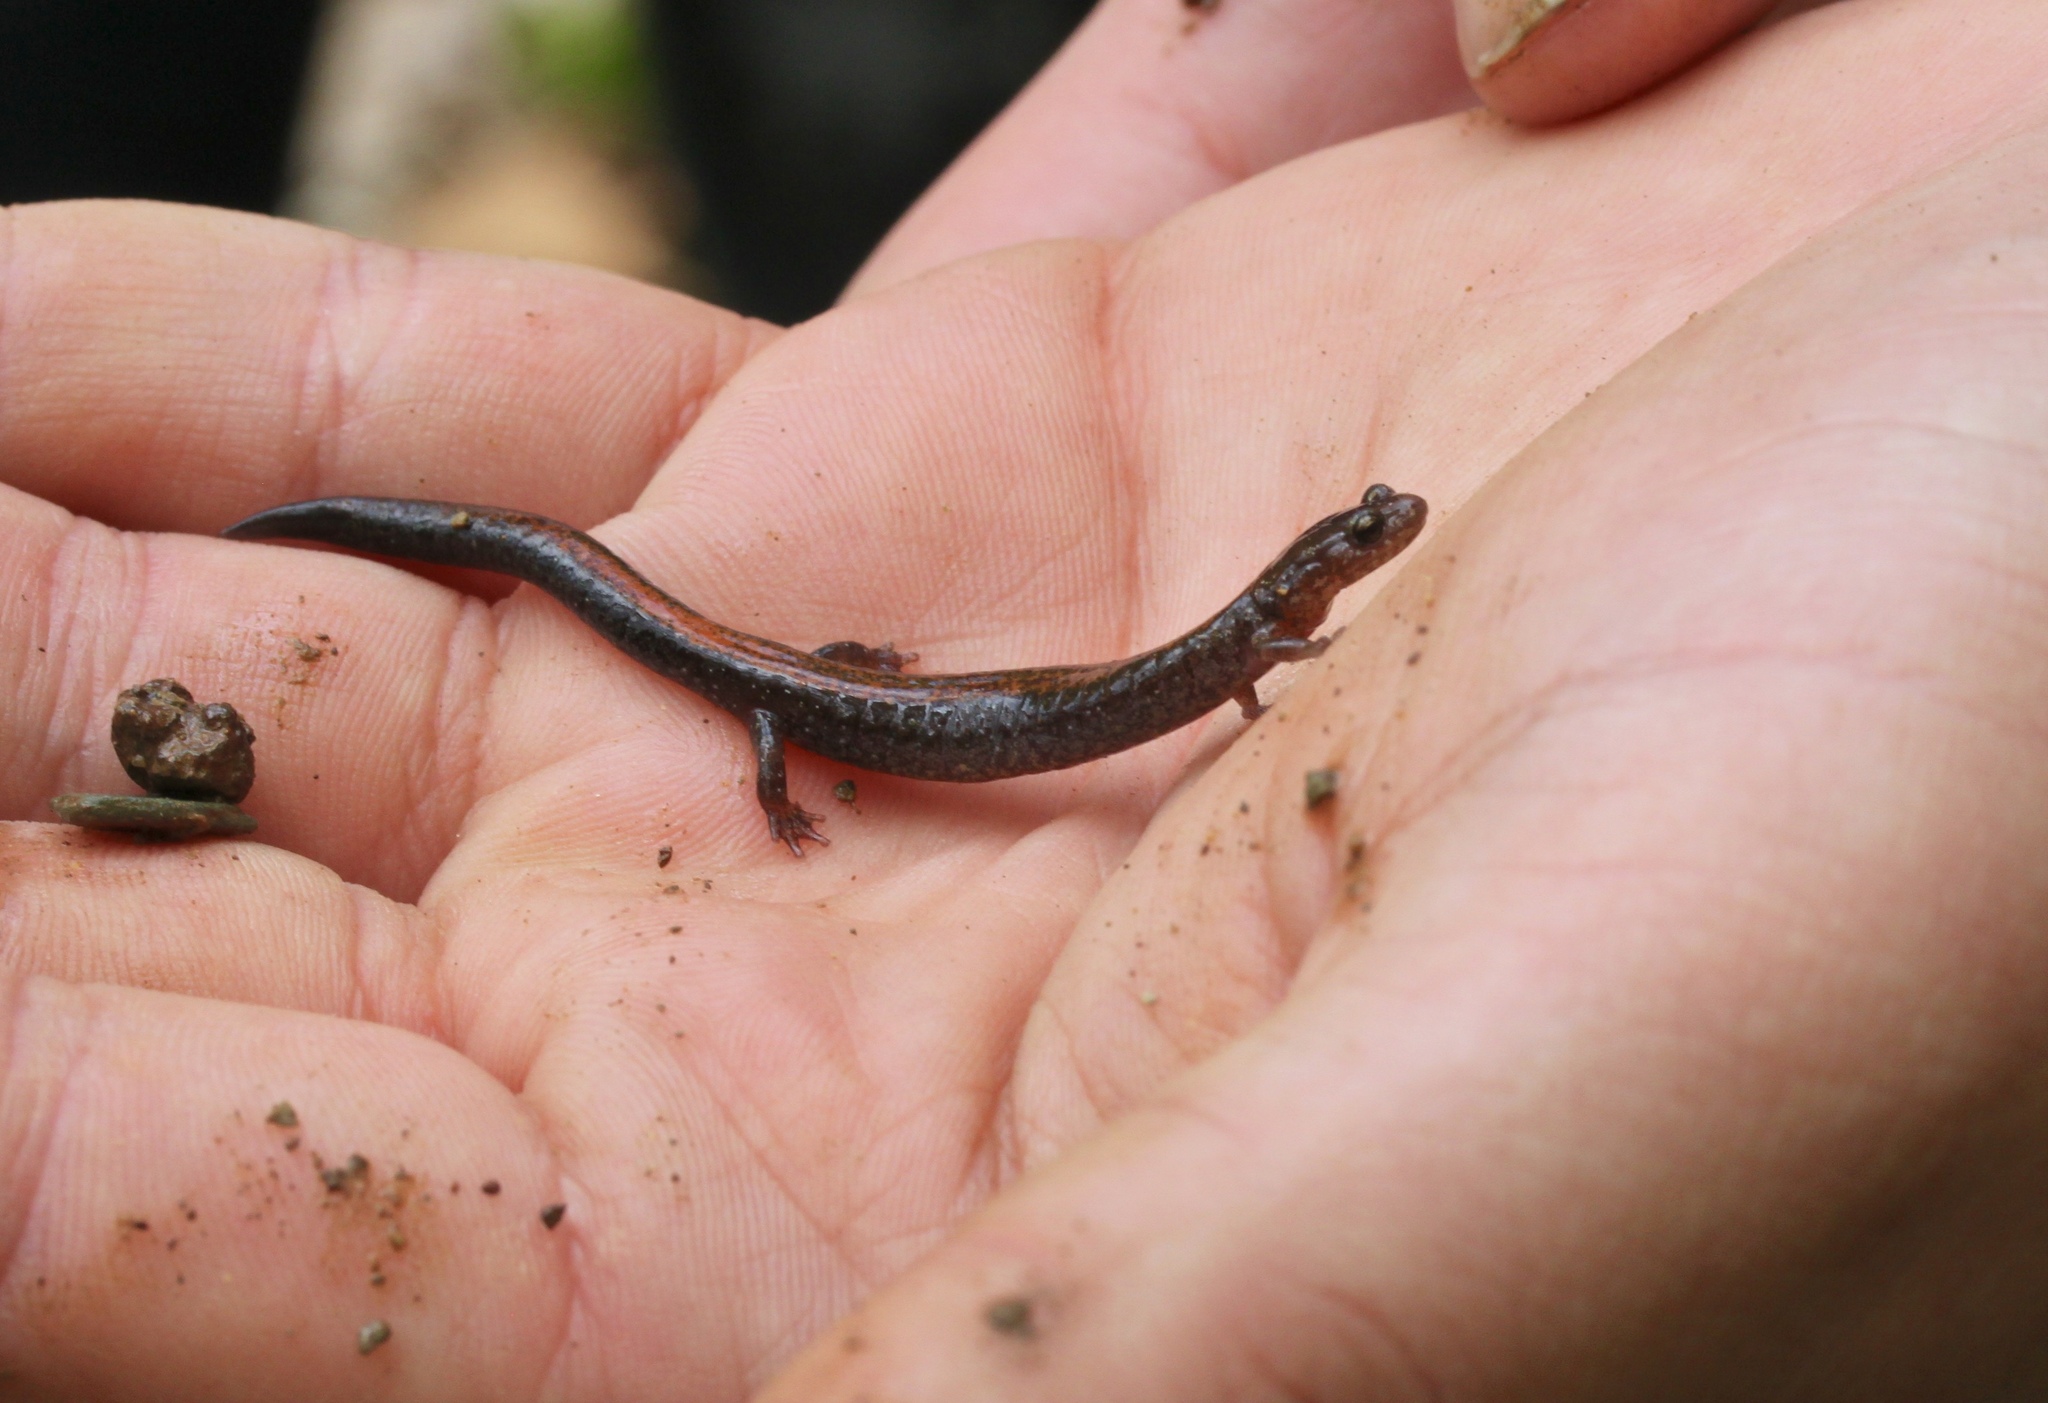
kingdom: Animalia
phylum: Chordata
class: Amphibia
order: Caudata
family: Plethodontidae
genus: Plethodon
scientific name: Plethodon cinereus
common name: Redback salamander
